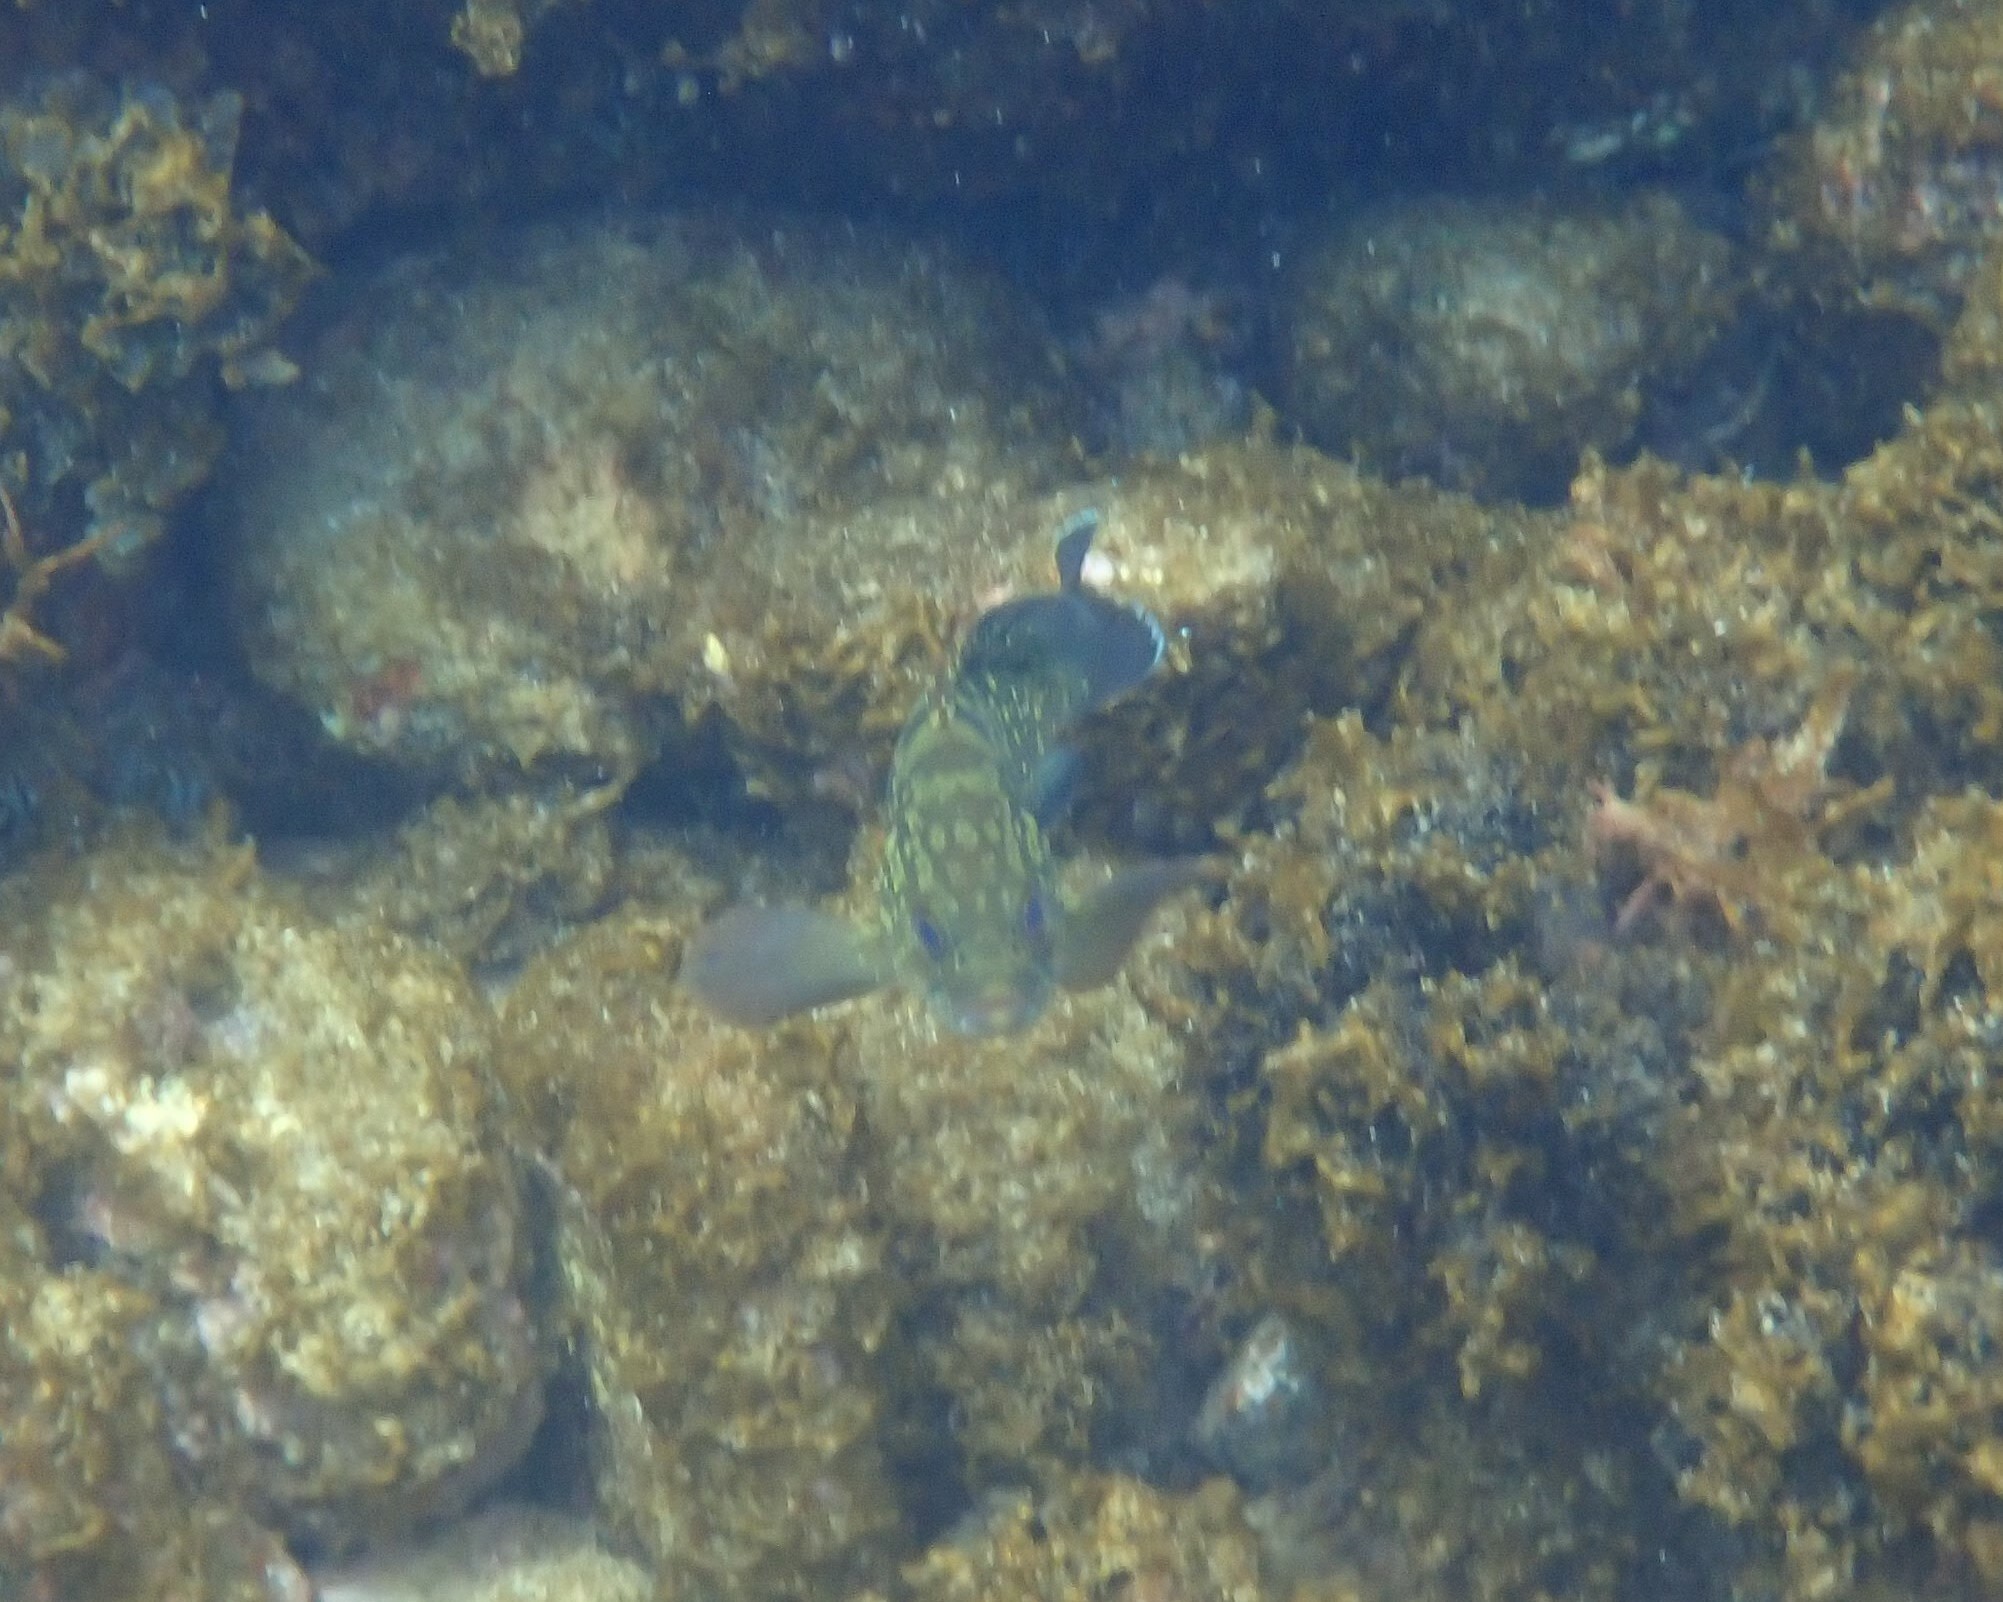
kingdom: Animalia
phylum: Chordata
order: Perciformes
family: Serranidae
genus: Epinephelus
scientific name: Epinephelus marginatus
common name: Dusky grouper
